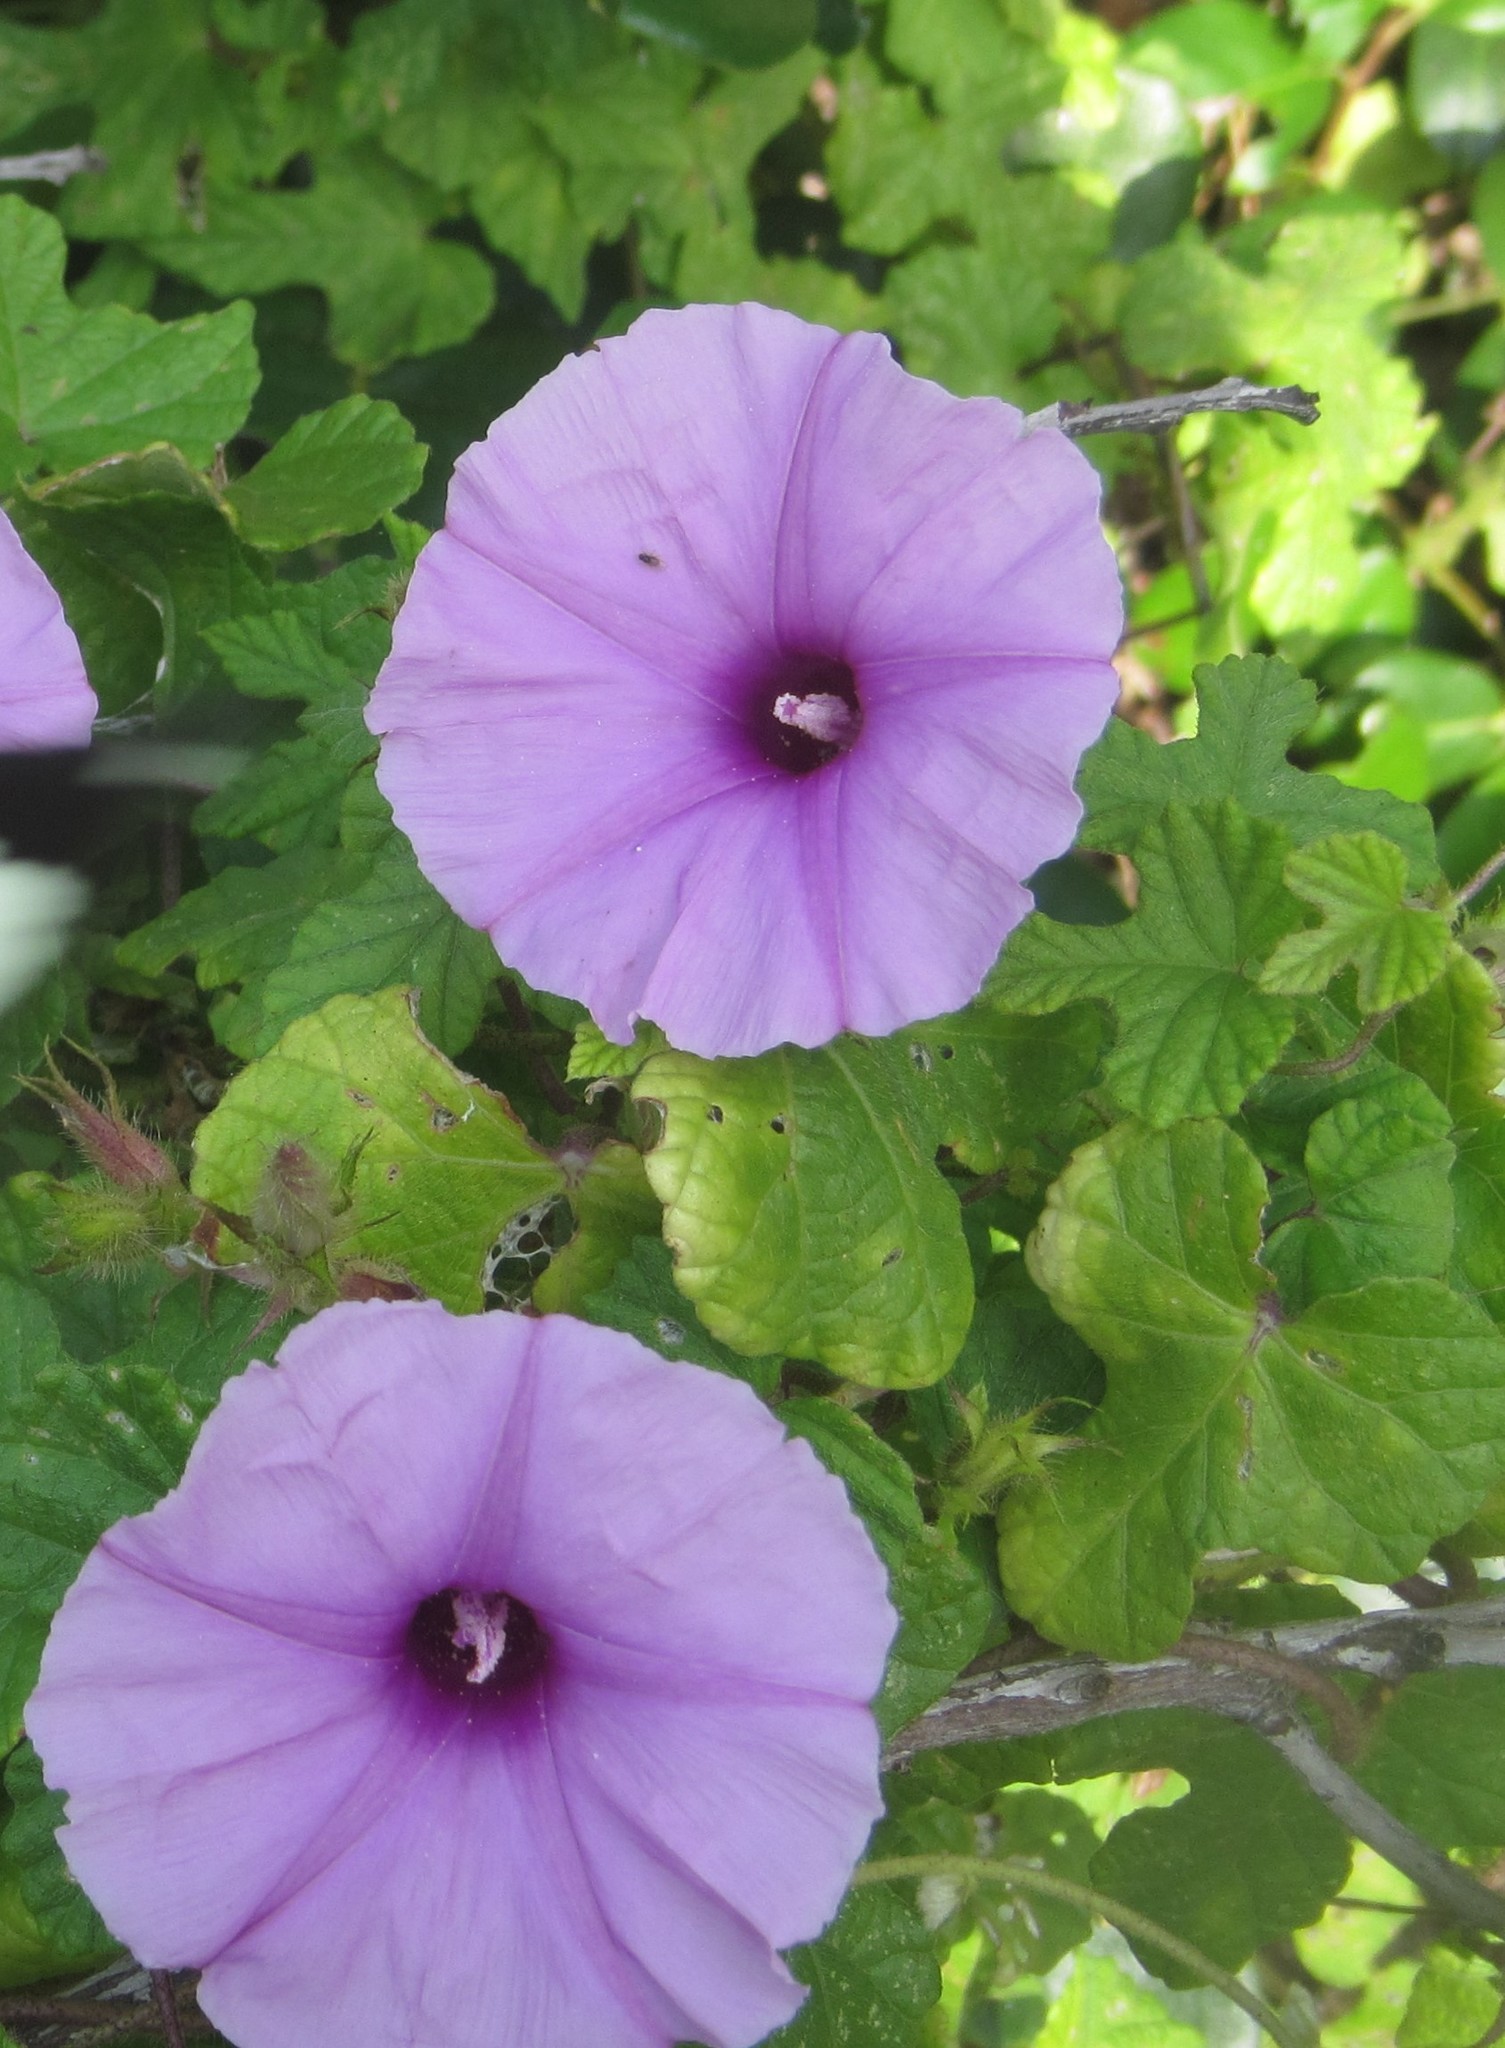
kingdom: Plantae
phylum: Tracheophyta
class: Magnoliopsida
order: Solanales
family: Convolvulaceae
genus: Ipomoea
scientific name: Ipomoea ficifolia
